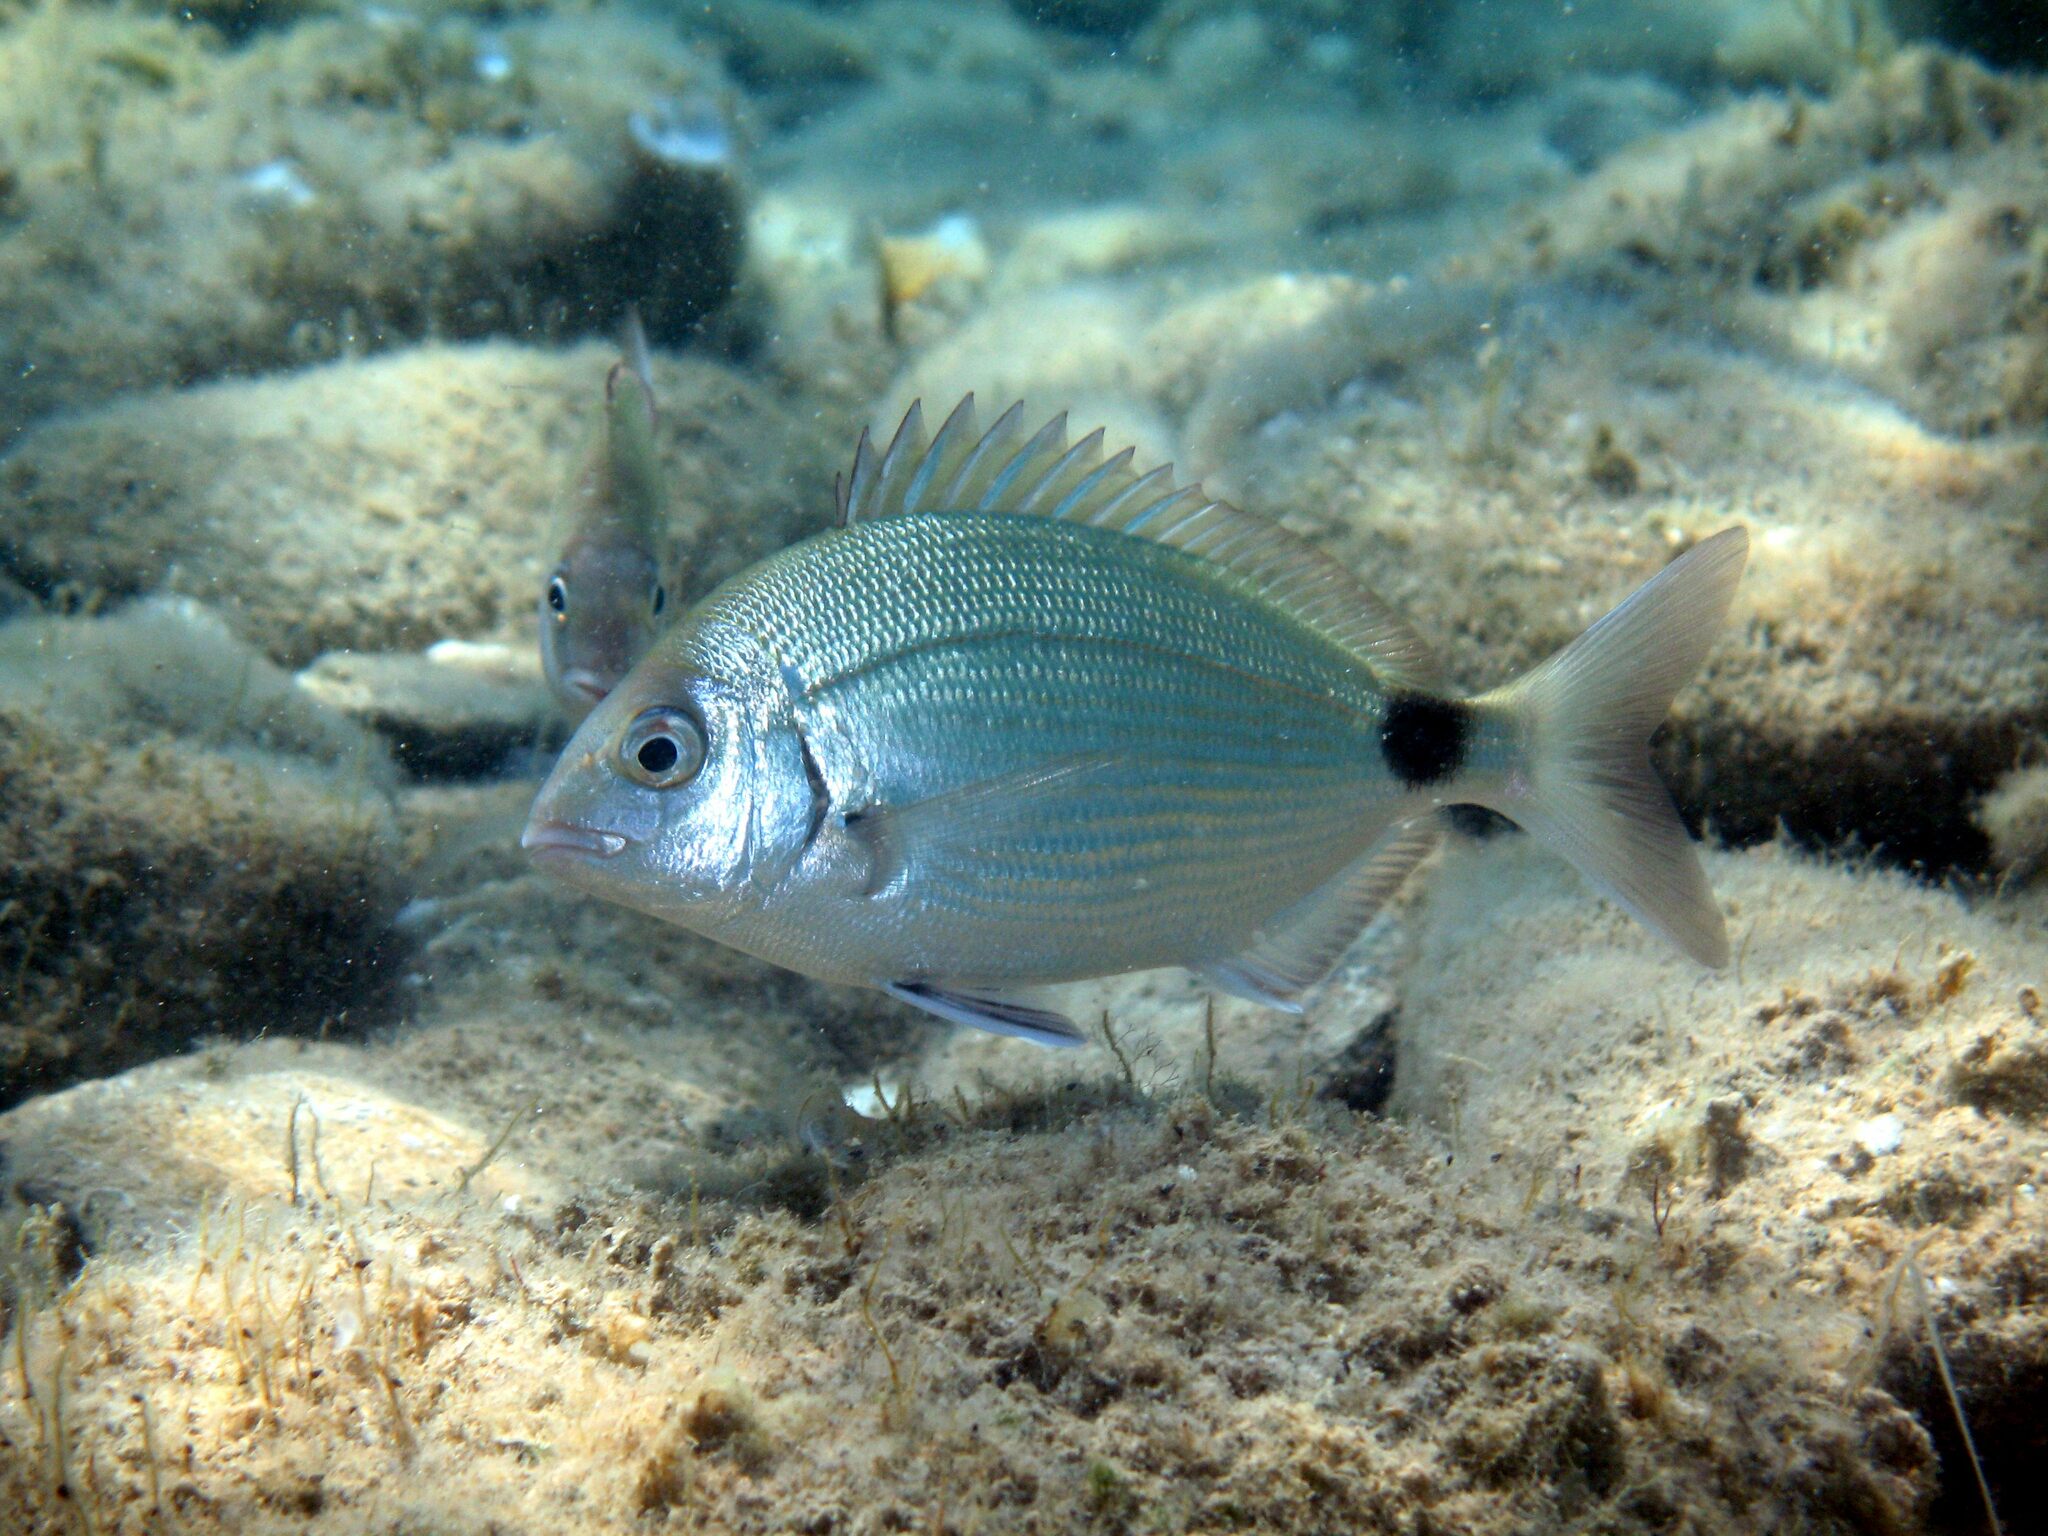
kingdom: Animalia
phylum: Chordata
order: Perciformes
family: Sparidae
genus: Diplodus
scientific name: Diplodus sargus
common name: White seabream
